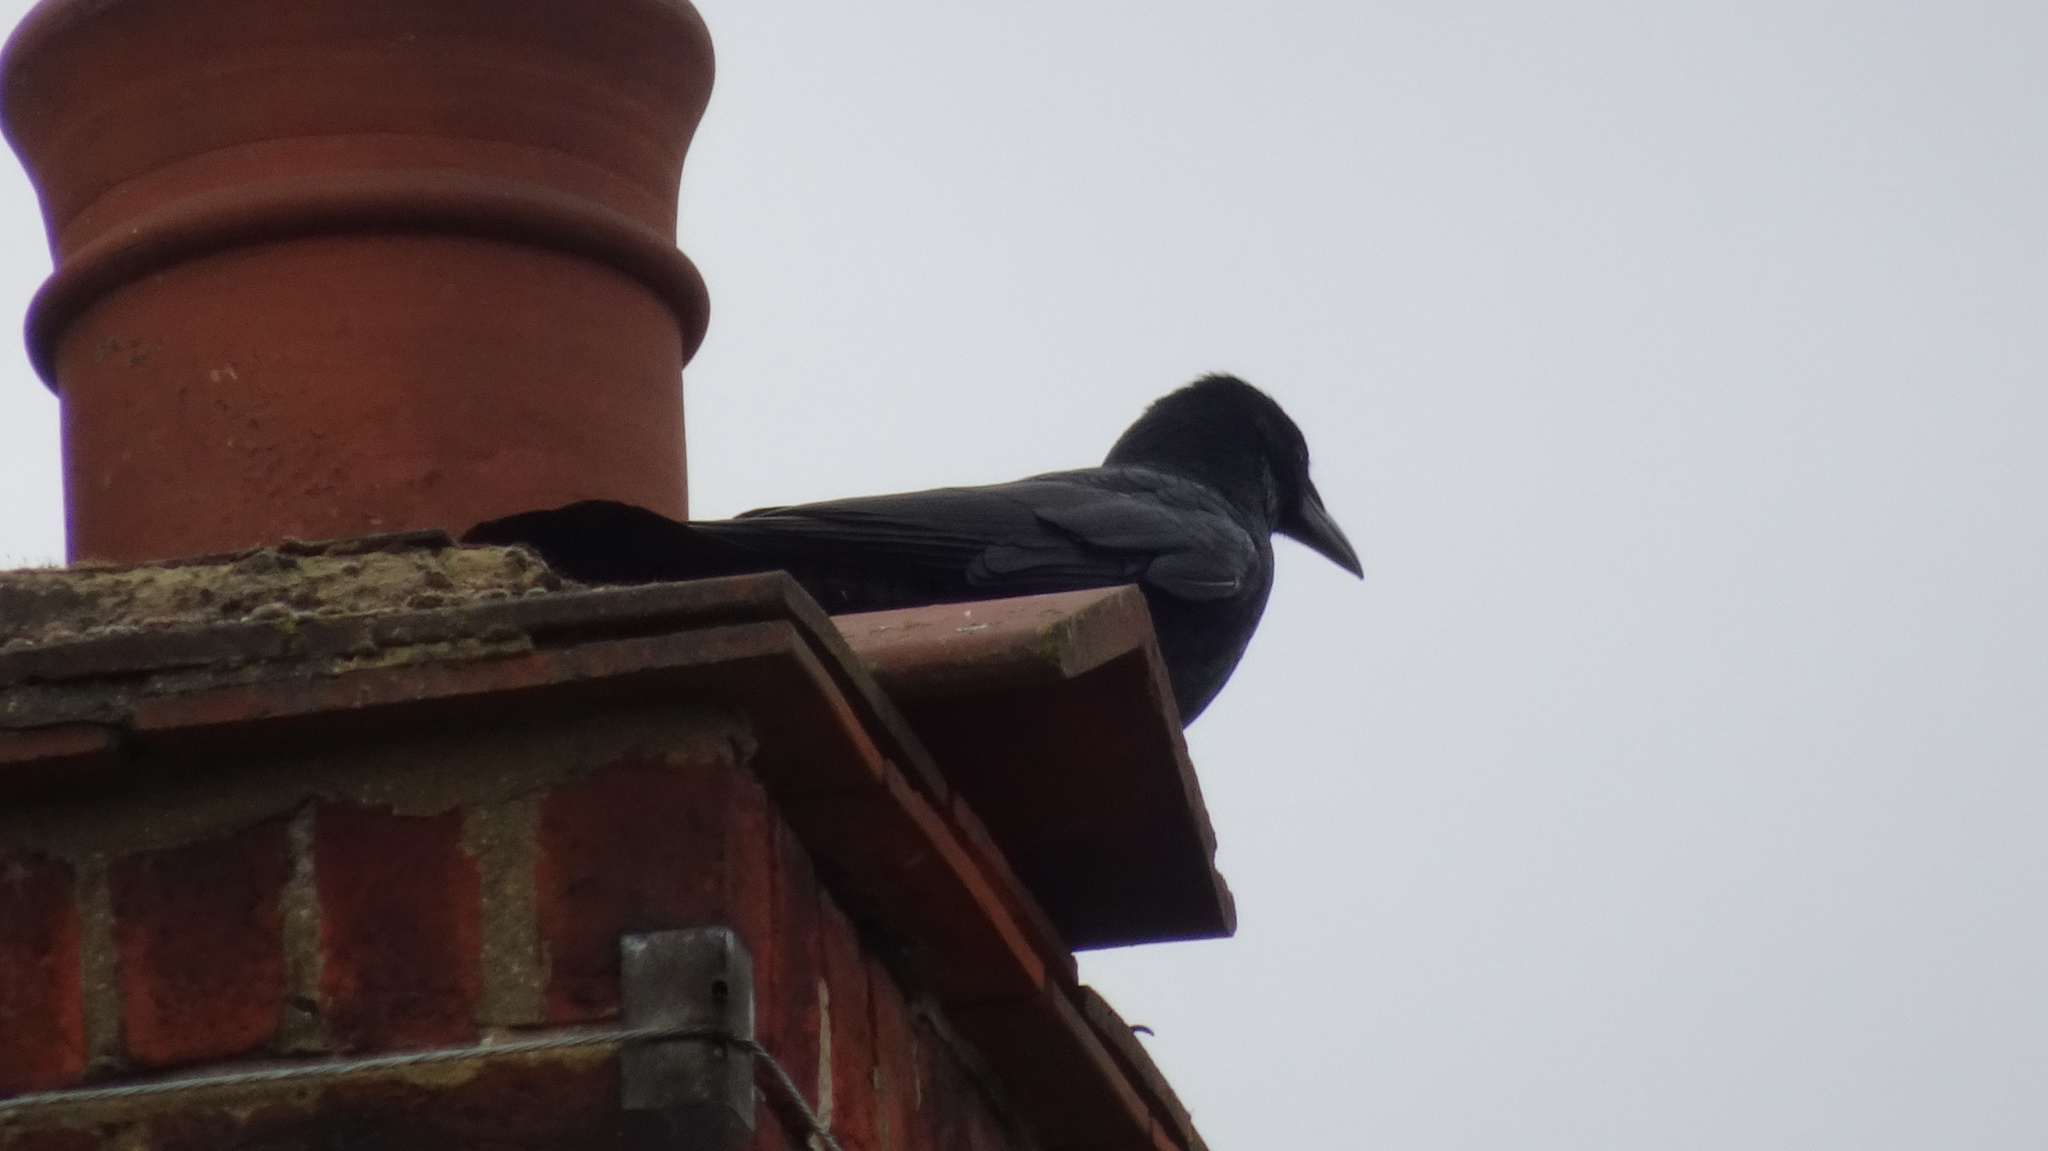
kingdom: Animalia
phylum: Chordata
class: Aves
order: Passeriformes
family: Corvidae
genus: Corvus
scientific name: Corvus corone
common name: Carrion crow
